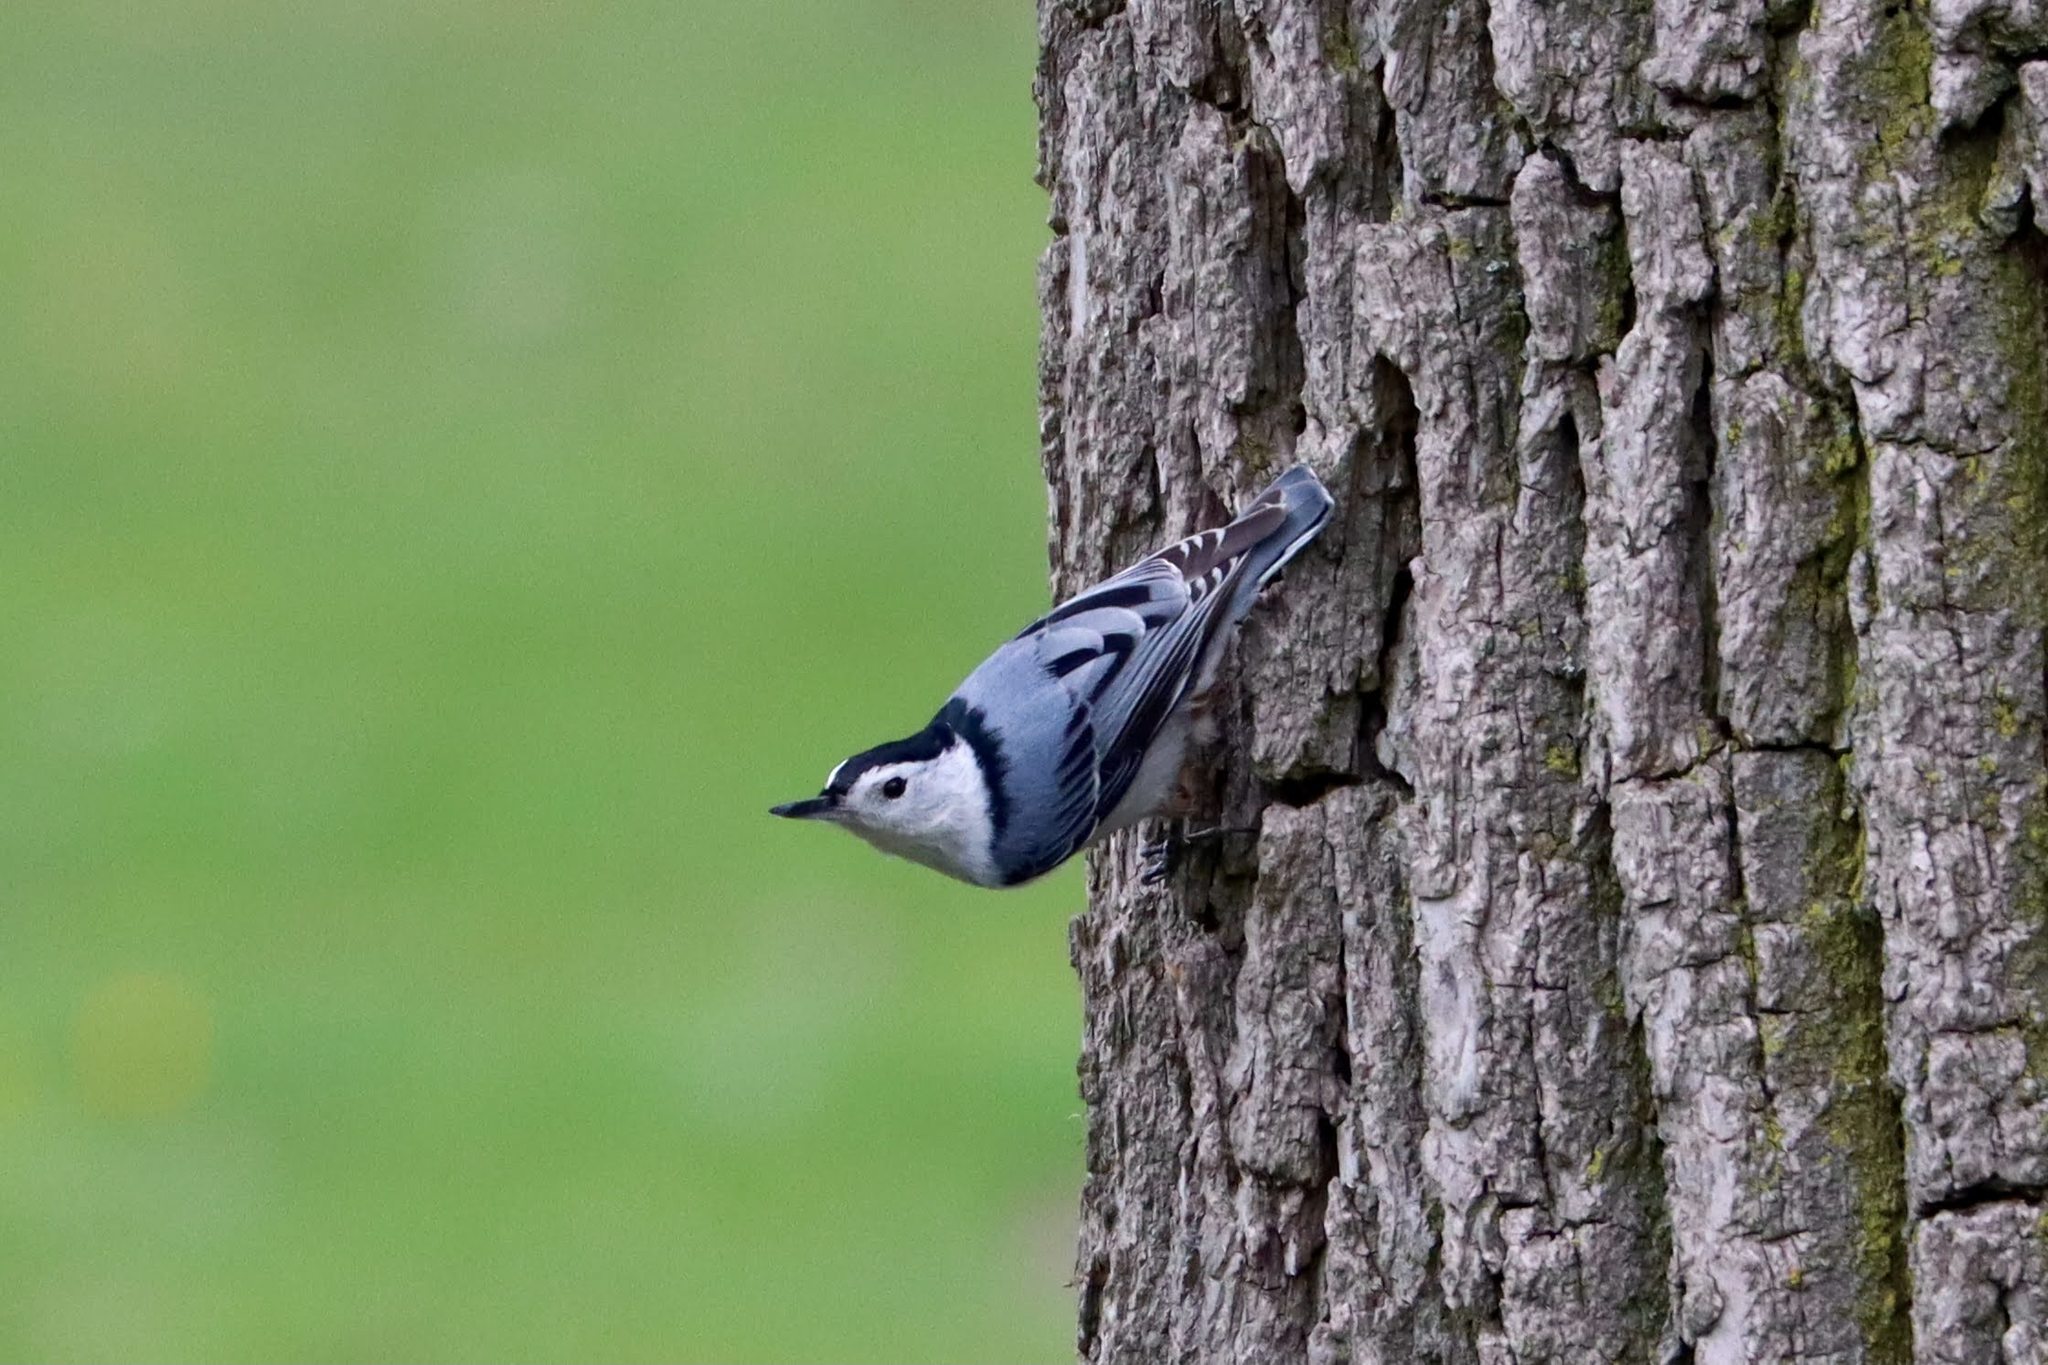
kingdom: Animalia
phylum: Chordata
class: Aves
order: Passeriformes
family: Sittidae
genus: Sitta
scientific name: Sitta carolinensis
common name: White-breasted nuthatch
